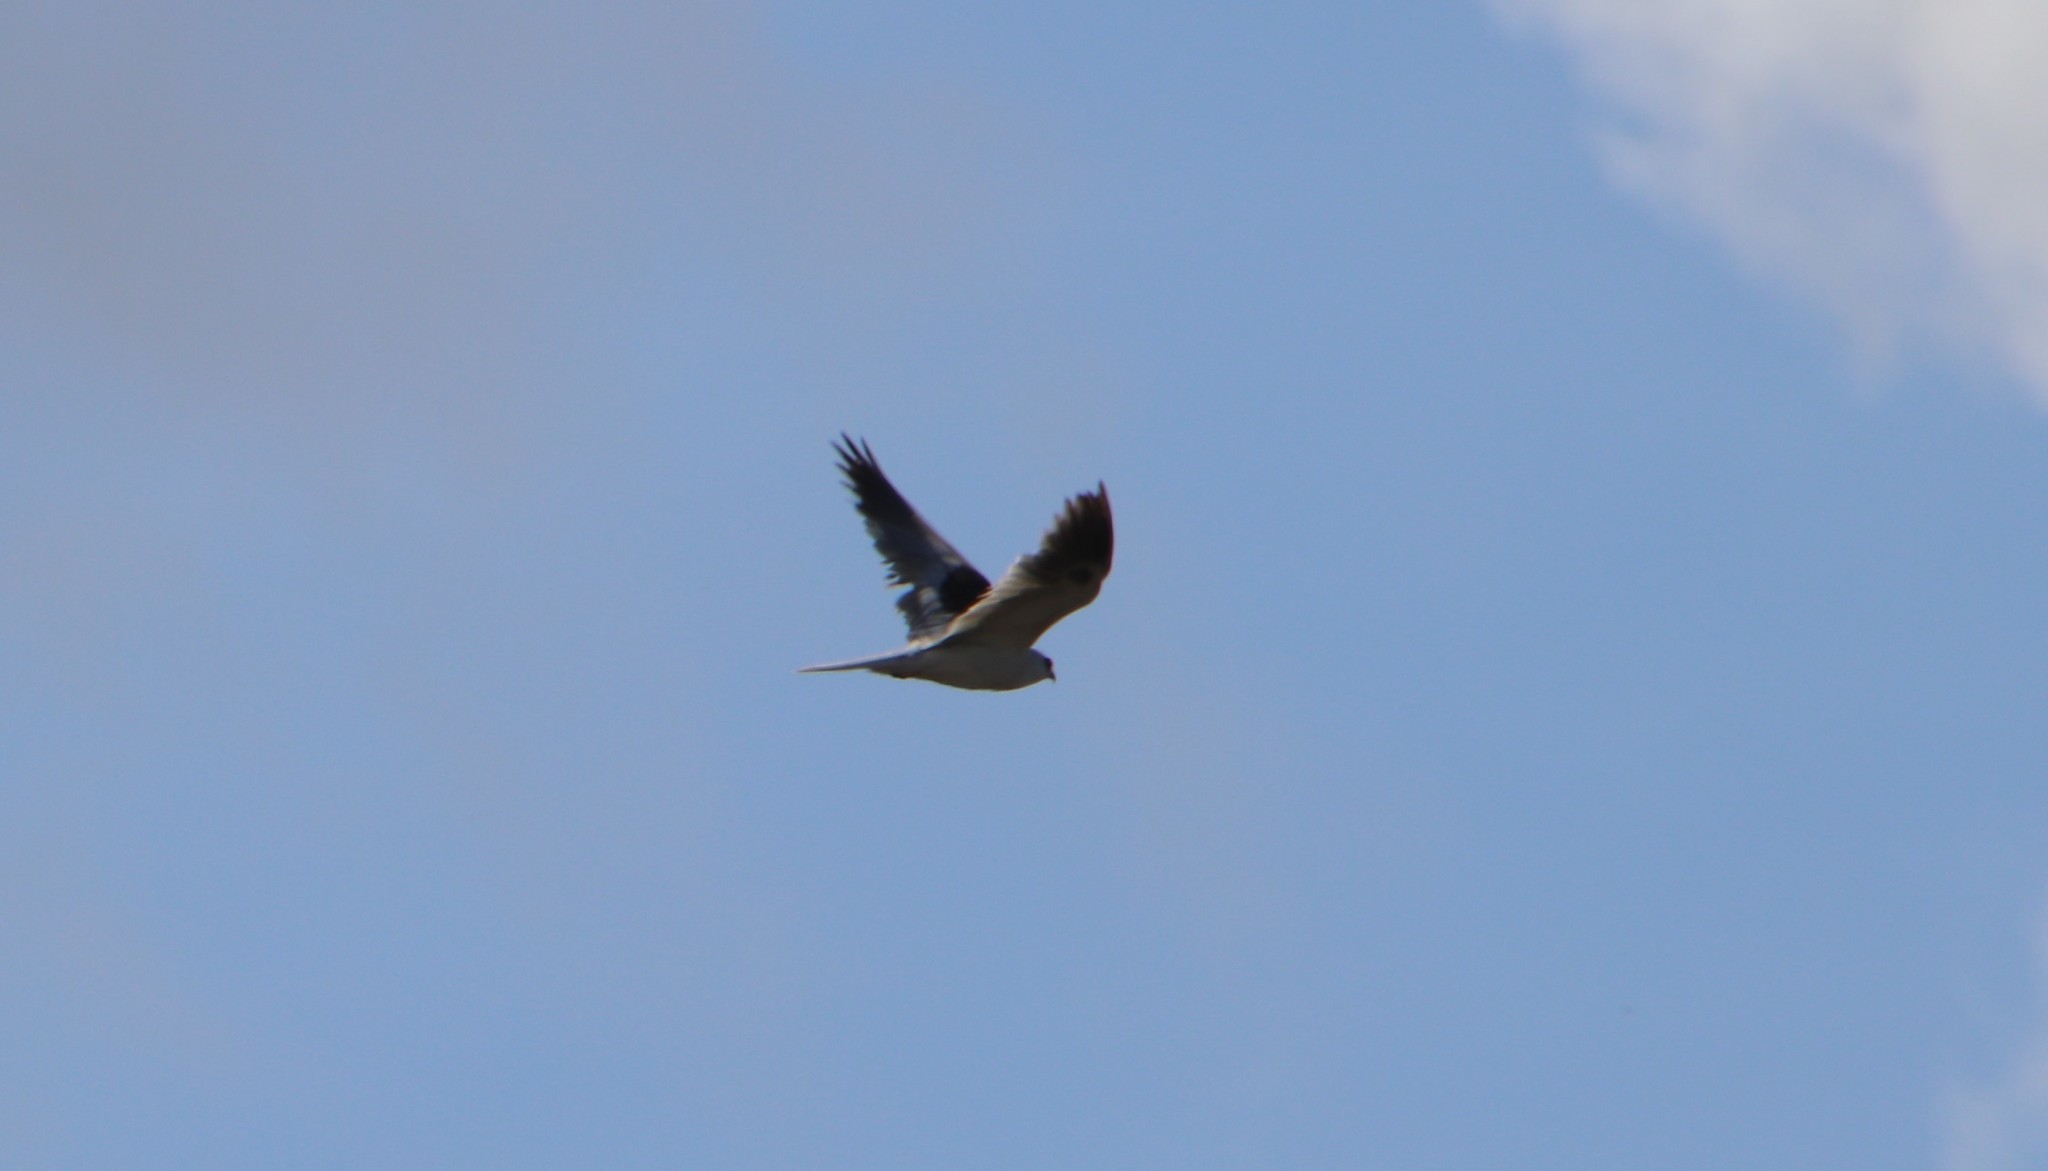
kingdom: Animalia
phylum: Chordata
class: Aves
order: Accipitriformes
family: Accipitridae
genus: Elanus
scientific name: Elanus leucurus
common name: White-tailed kite
